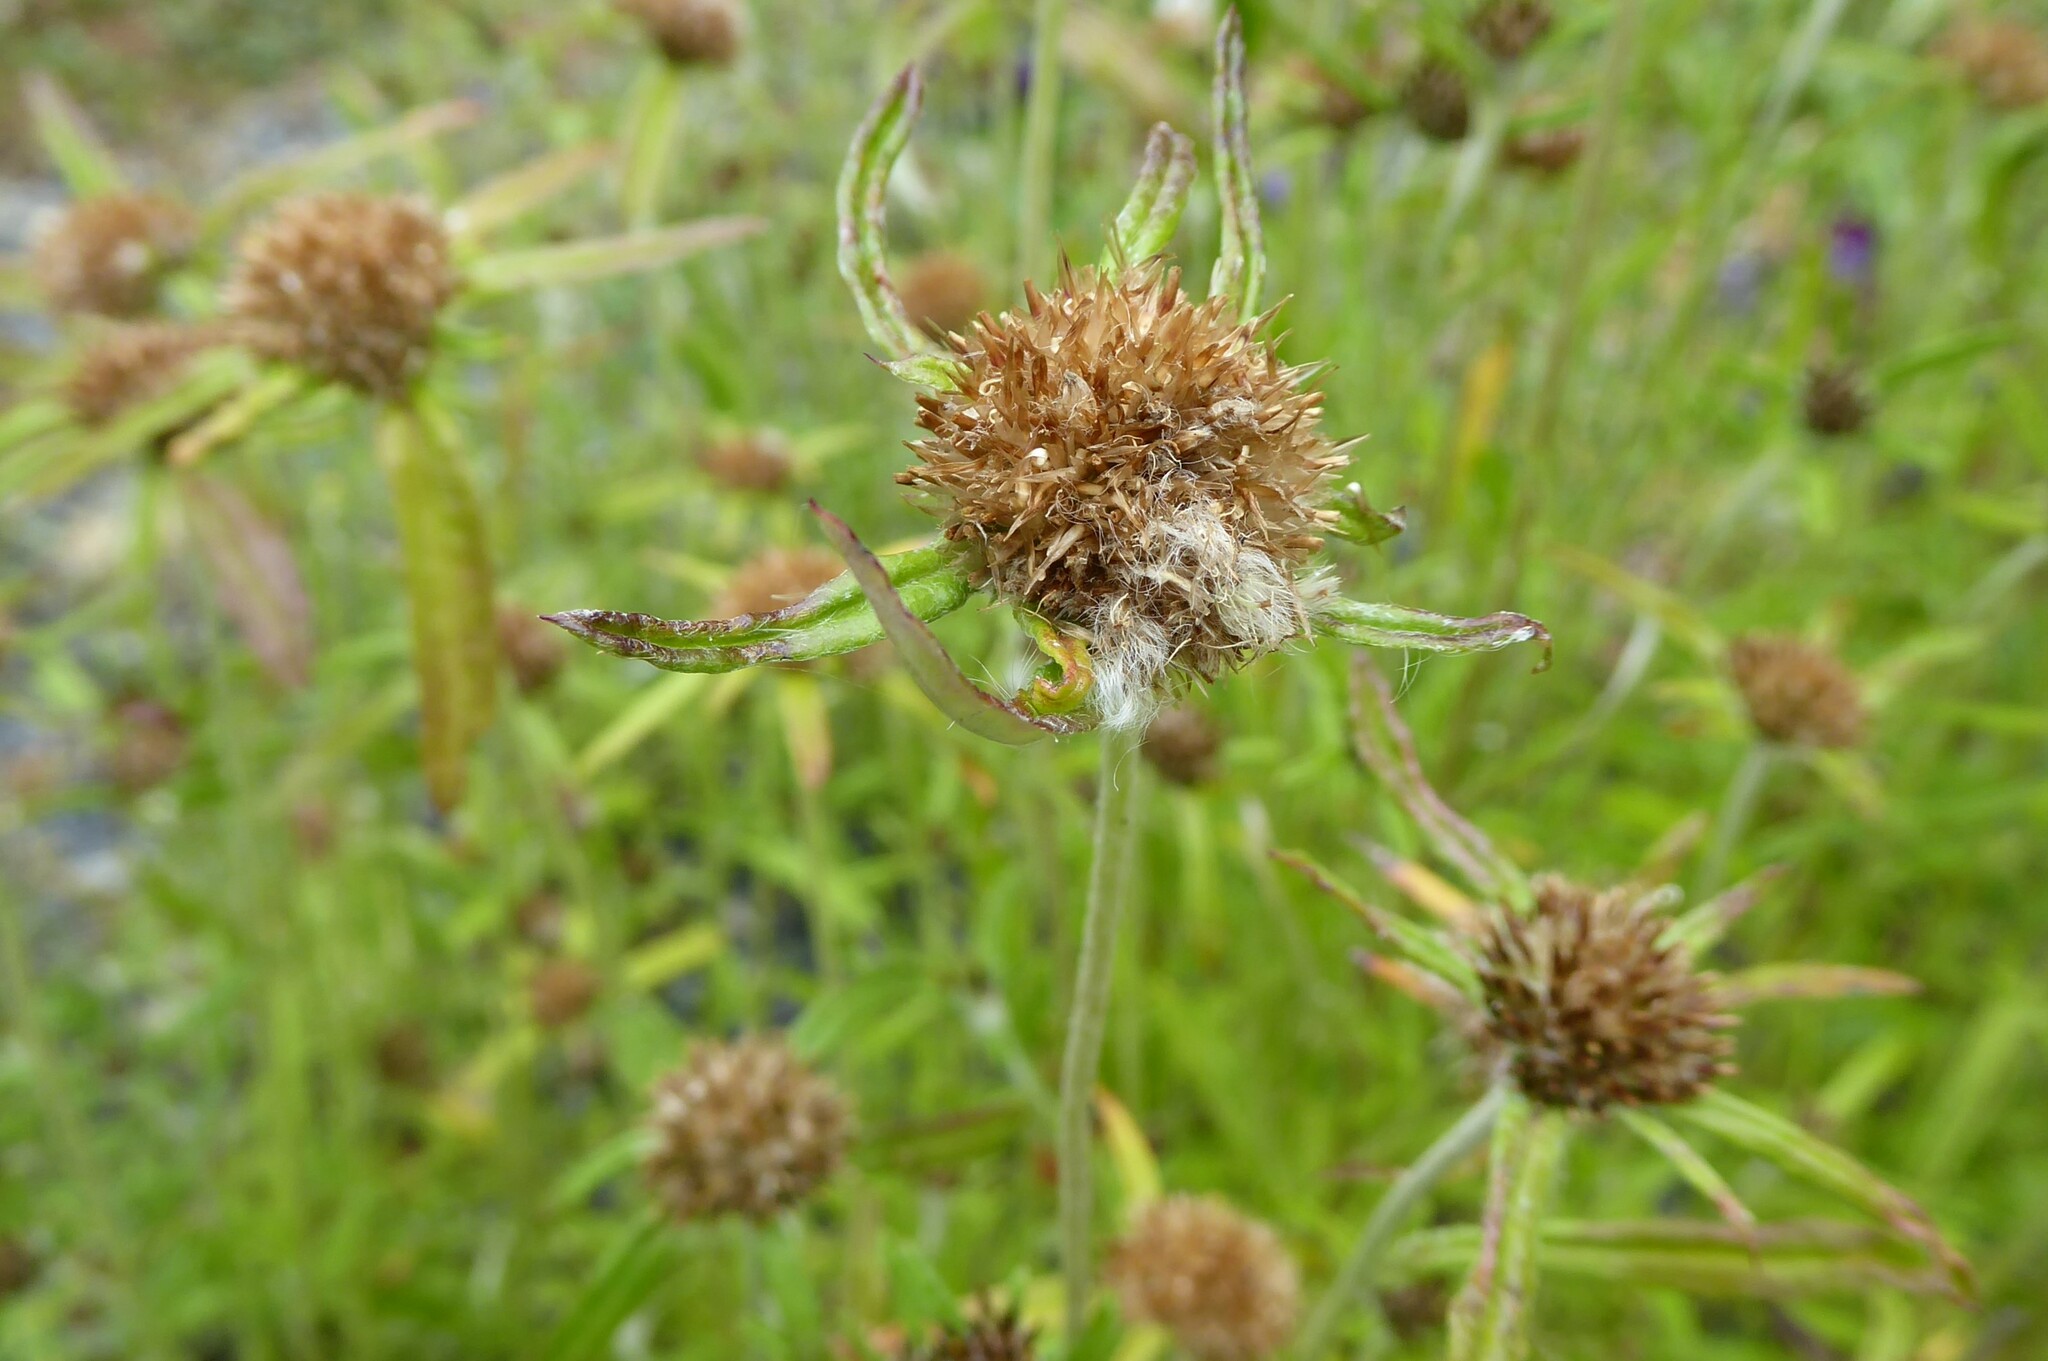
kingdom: Plantae
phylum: Tracheophyta
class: Magnoliopsida
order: Asterales
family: Asteraceae
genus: Euchiton
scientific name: Euchiton sphaericus
